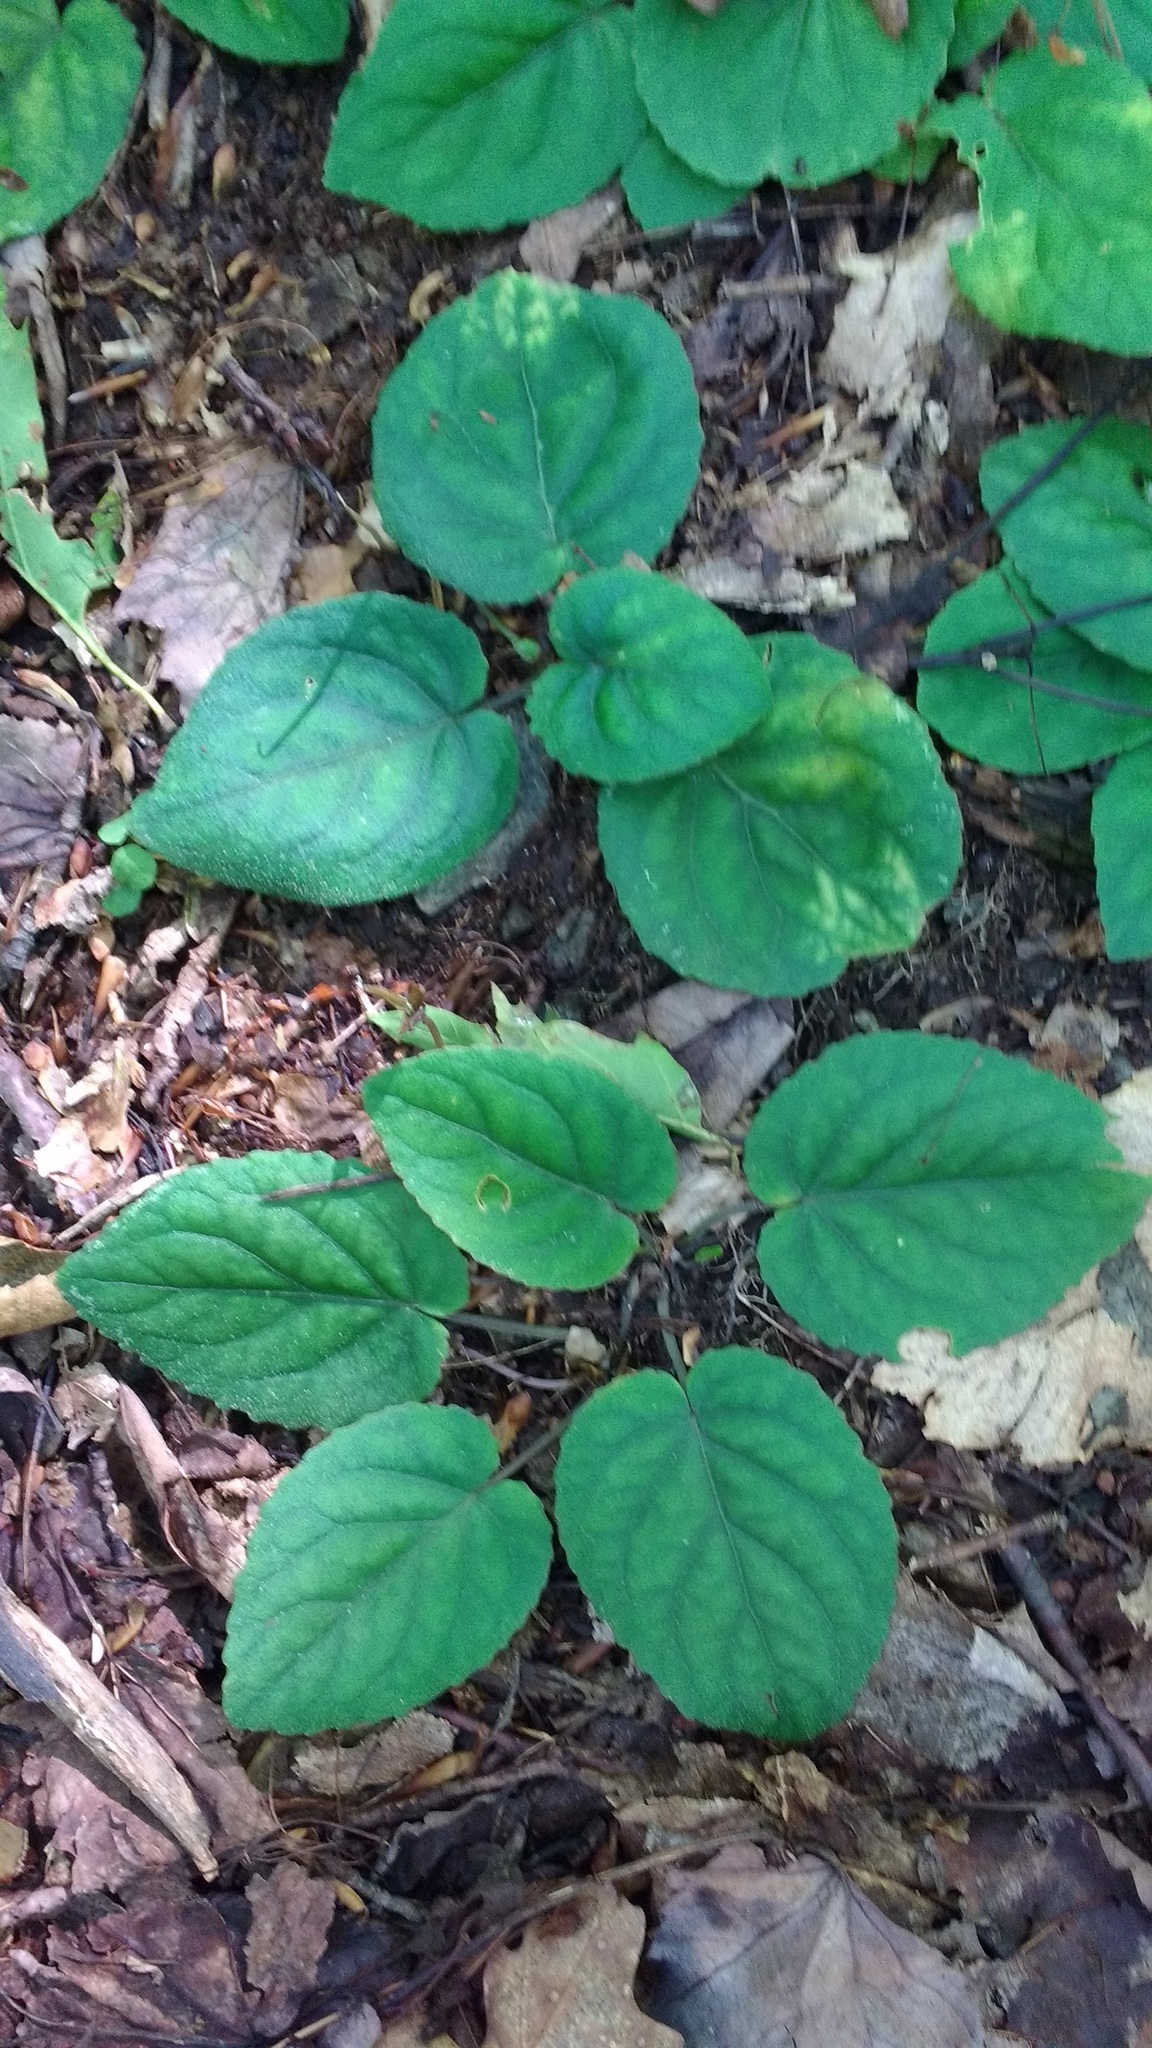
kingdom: Plantae
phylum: Tracheophyta
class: Magnoliopsida
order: Malpighiales
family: Violaceae
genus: Viola
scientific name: Viola rotundifolia
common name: Early yellow violet
